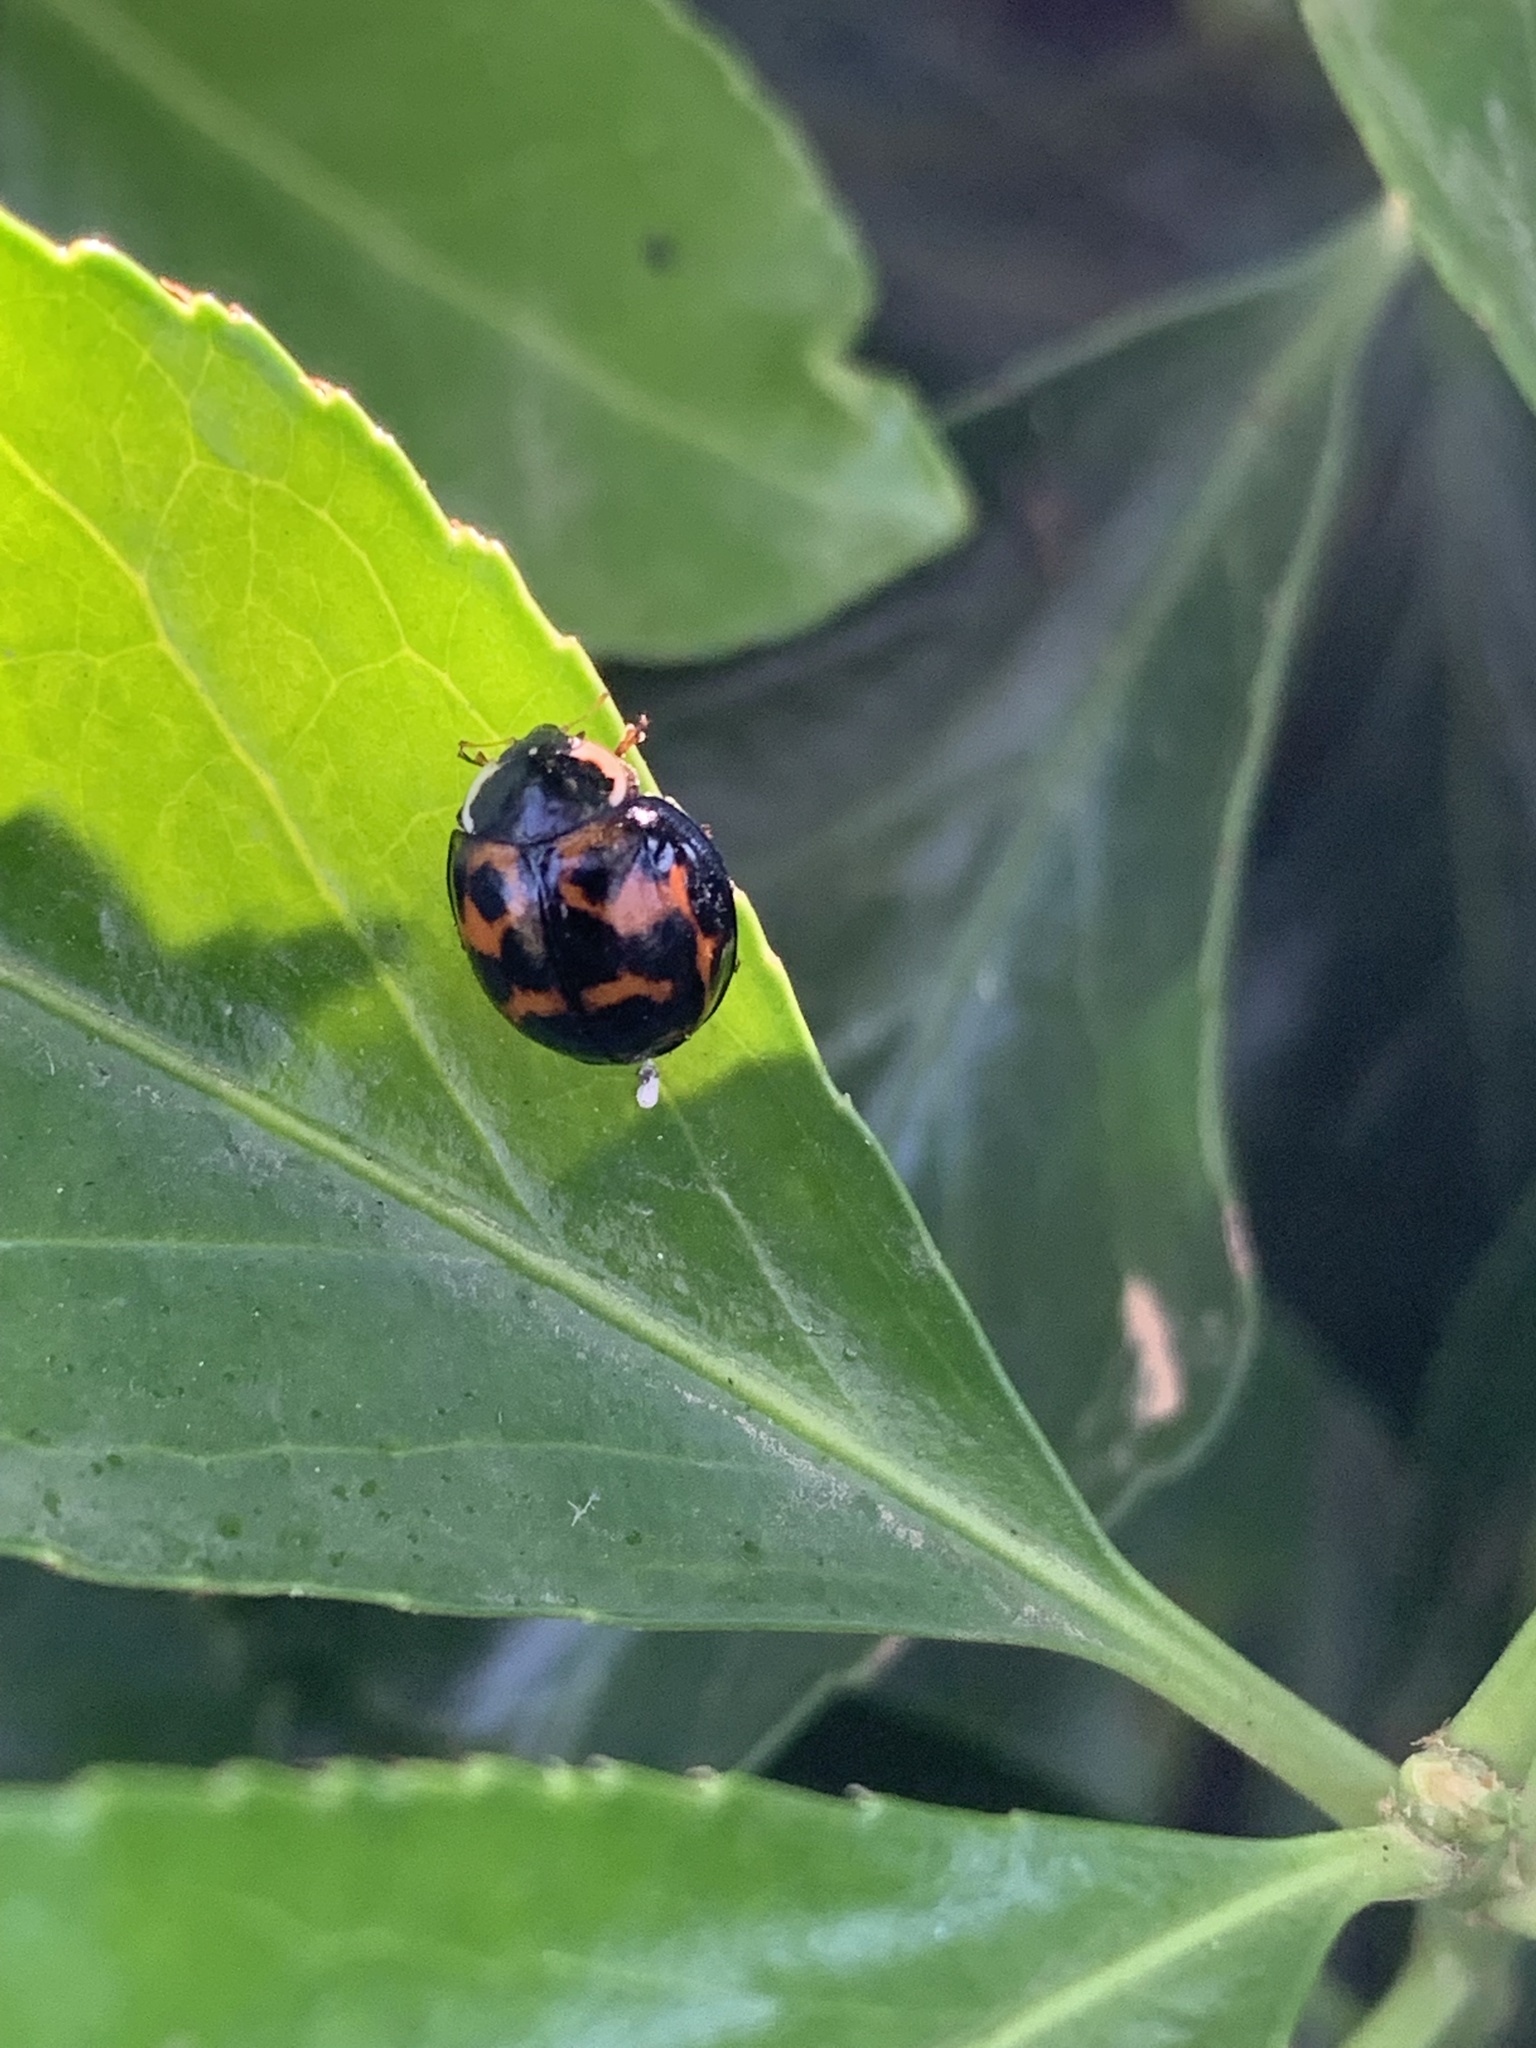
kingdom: Animalia
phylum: Arthropoda
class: Insecta
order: Coleoptera
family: Coccinellidae
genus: Harmonia
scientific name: Harmonia axyridis
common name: Harlequin ladybird
